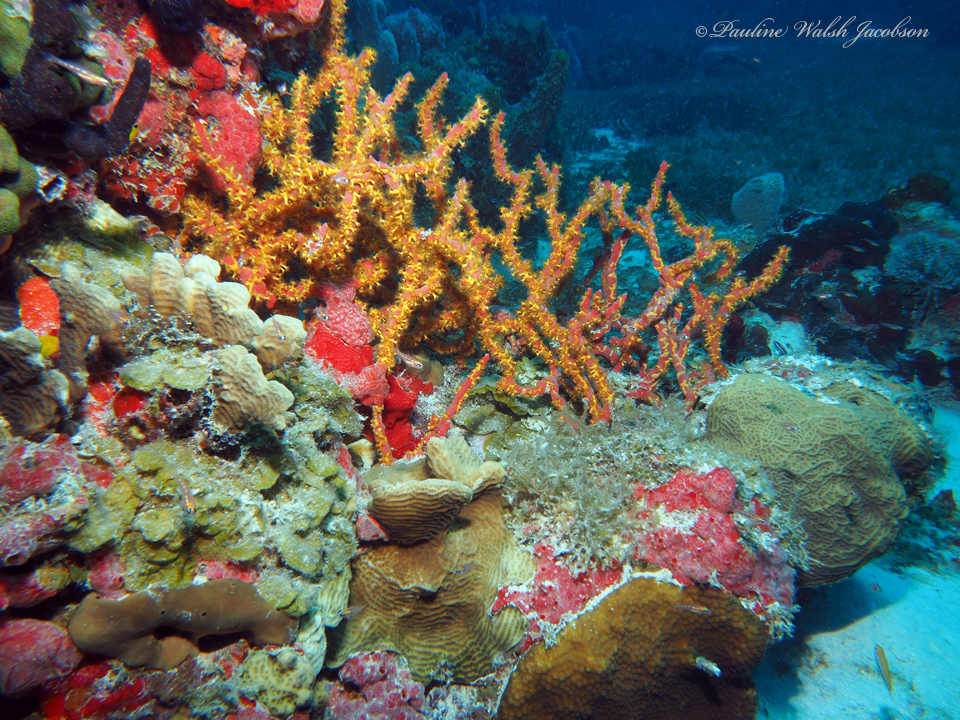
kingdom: Animalia
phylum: Porifera
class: Demospongiae
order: Poecilosclerida
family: Microcionidae
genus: Clathria
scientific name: Clathria virgultosa
